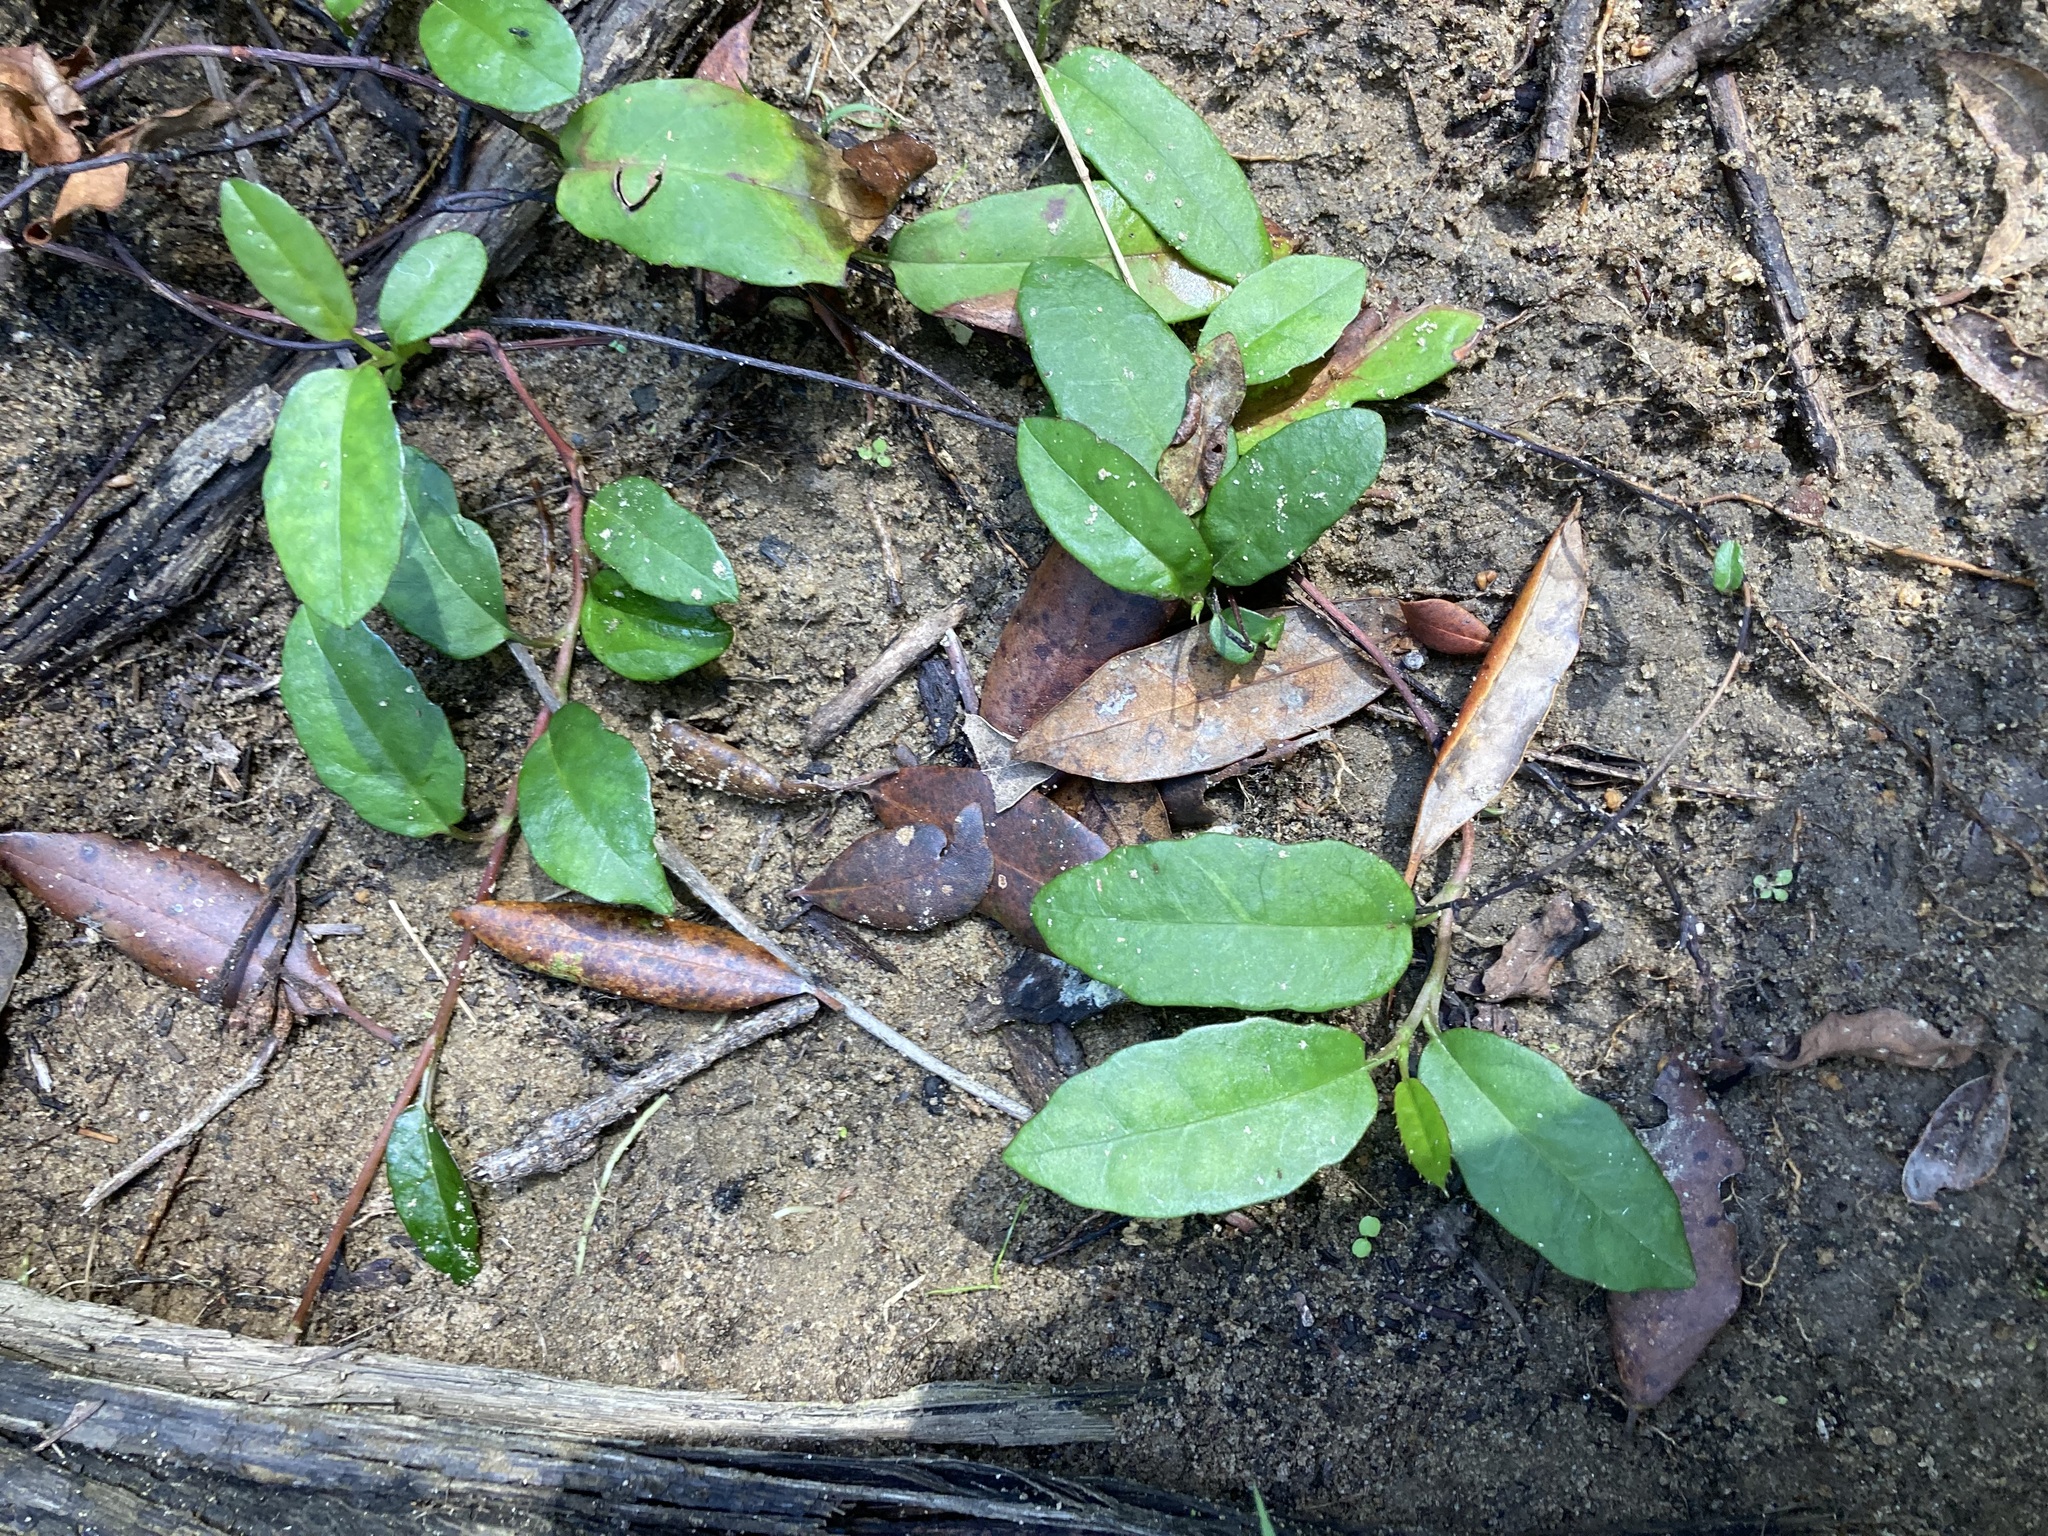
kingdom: Plantae
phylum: Tracheophyta
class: Magnoliopsida
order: Dilleniales
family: Dilleniaceae
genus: Hibbertia
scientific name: Hibbertia dentata
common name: Trailing guinea-flower
